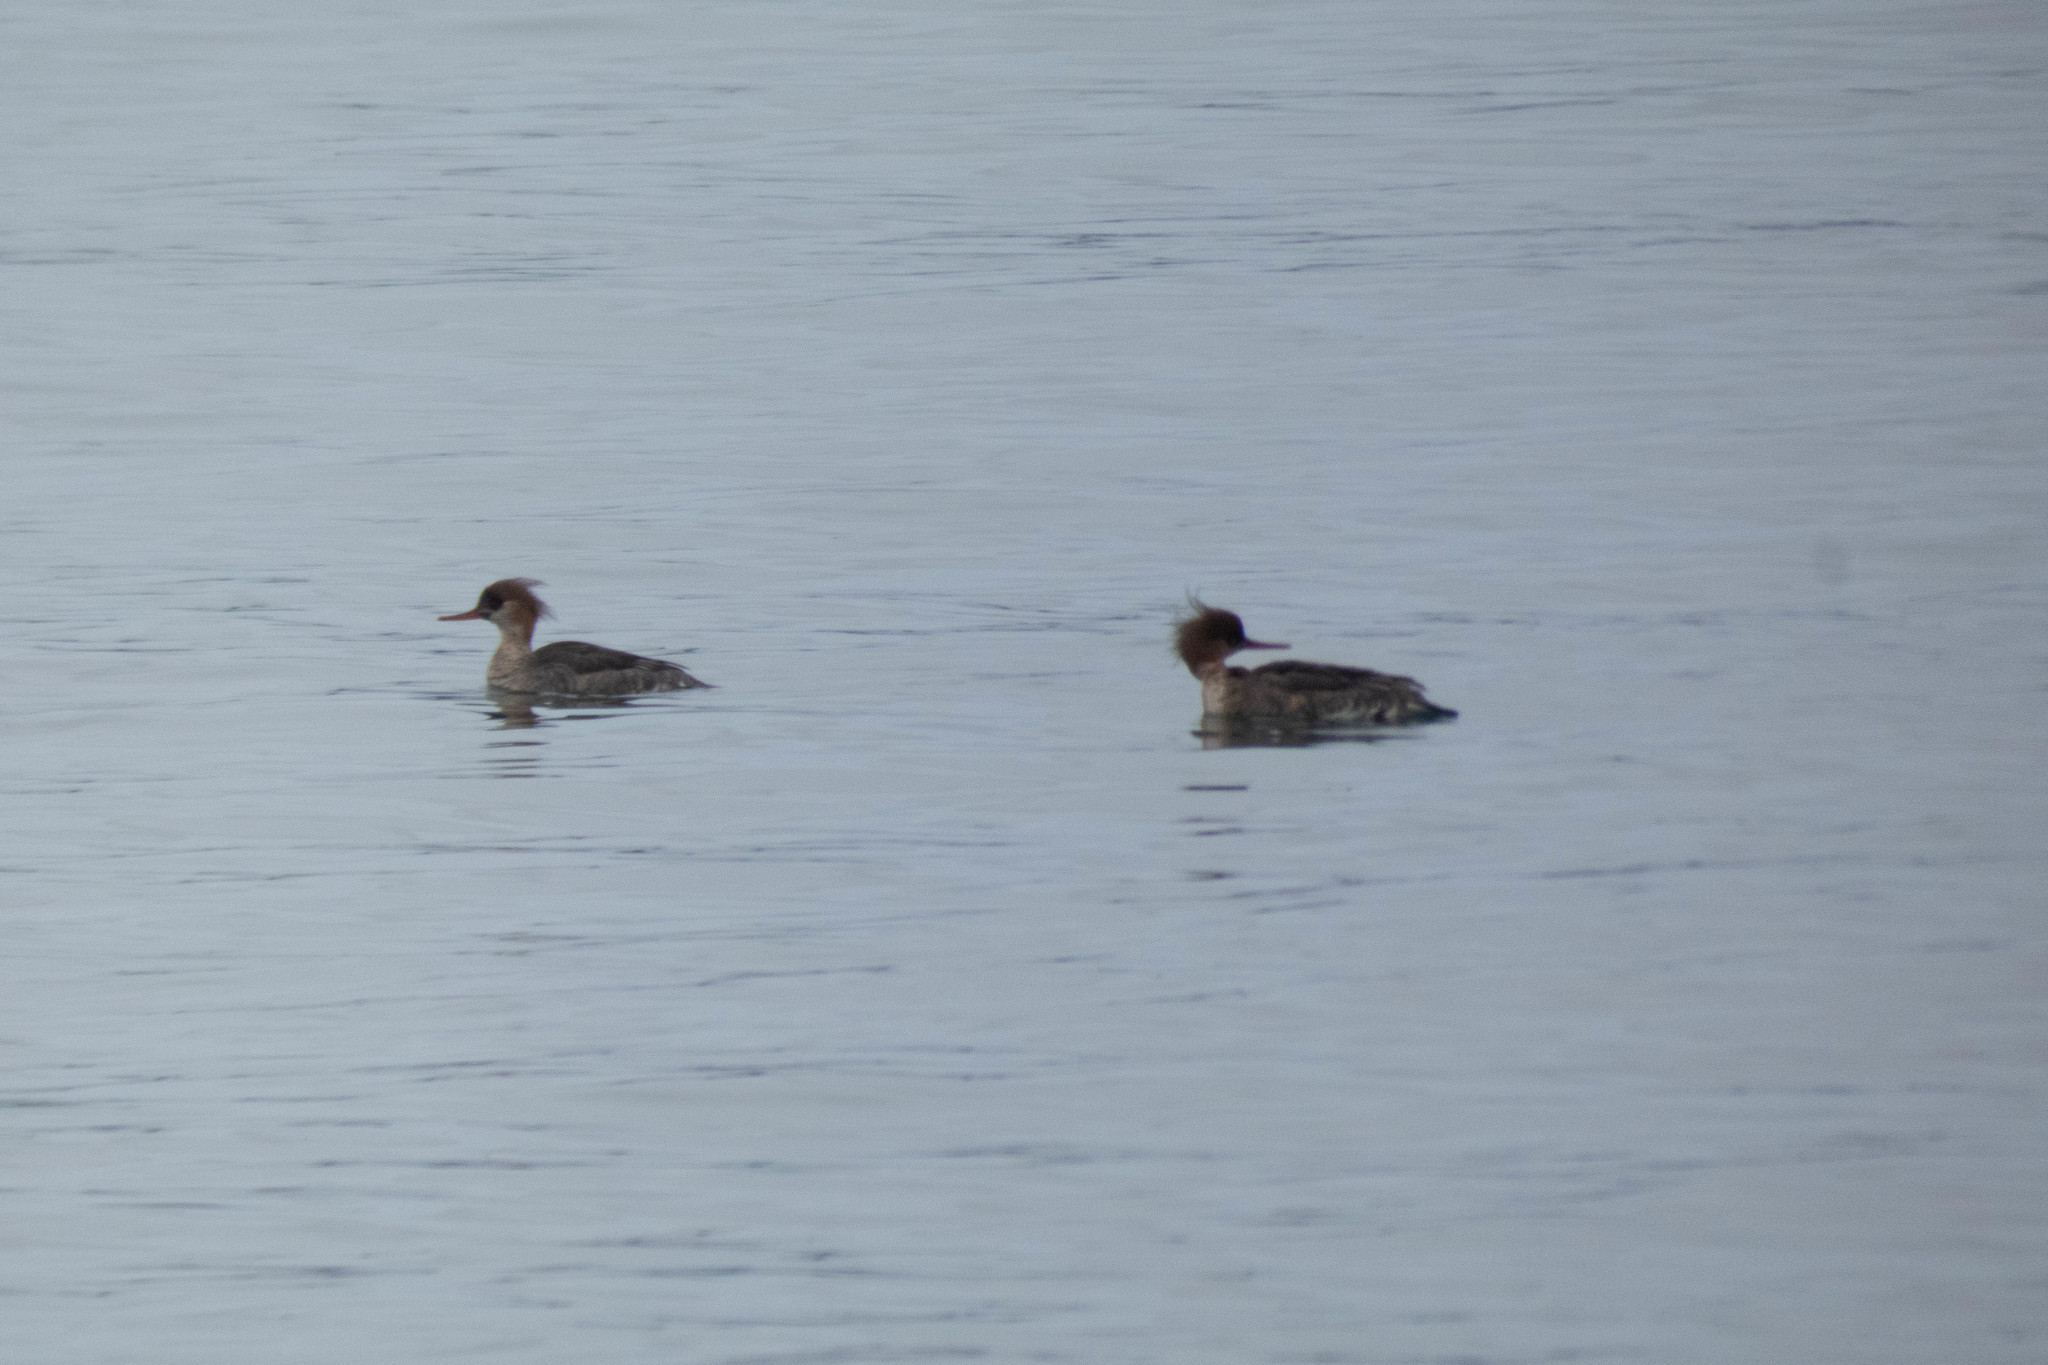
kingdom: Animalia
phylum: Chordata
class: Aves
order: Anseriformes
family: Anatidae
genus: Mergus
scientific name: Mergus serrator
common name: Red-breasted merganser
